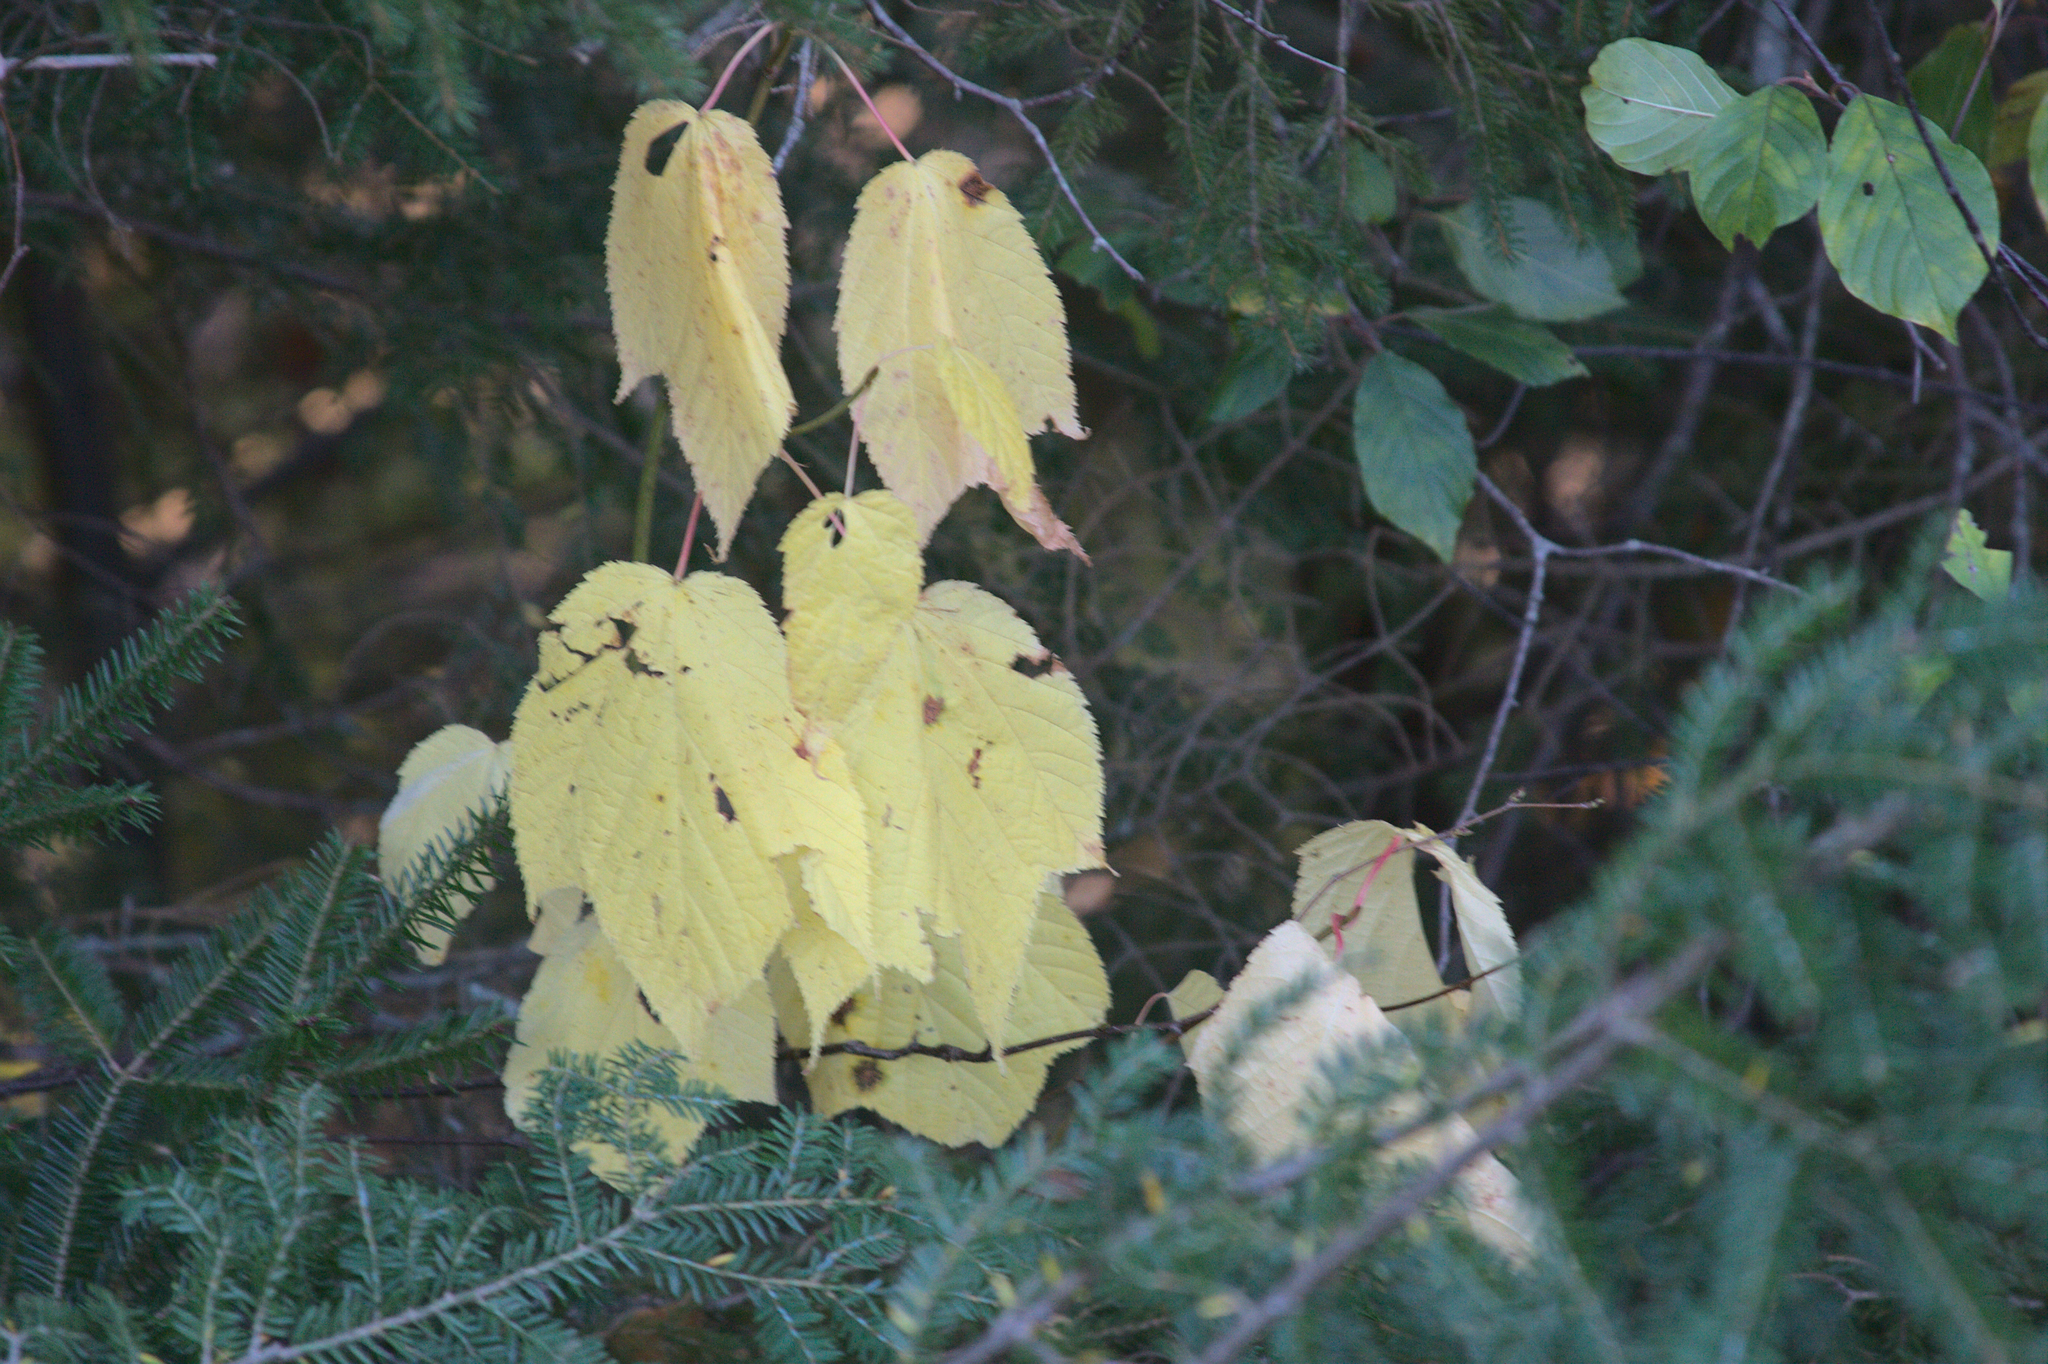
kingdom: Plantae
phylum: Tracheophyta
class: Magnoliopsida
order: Sapindales
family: Sapindaceae
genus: Acer
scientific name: Acer pensylvanicum
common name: Moosewood
